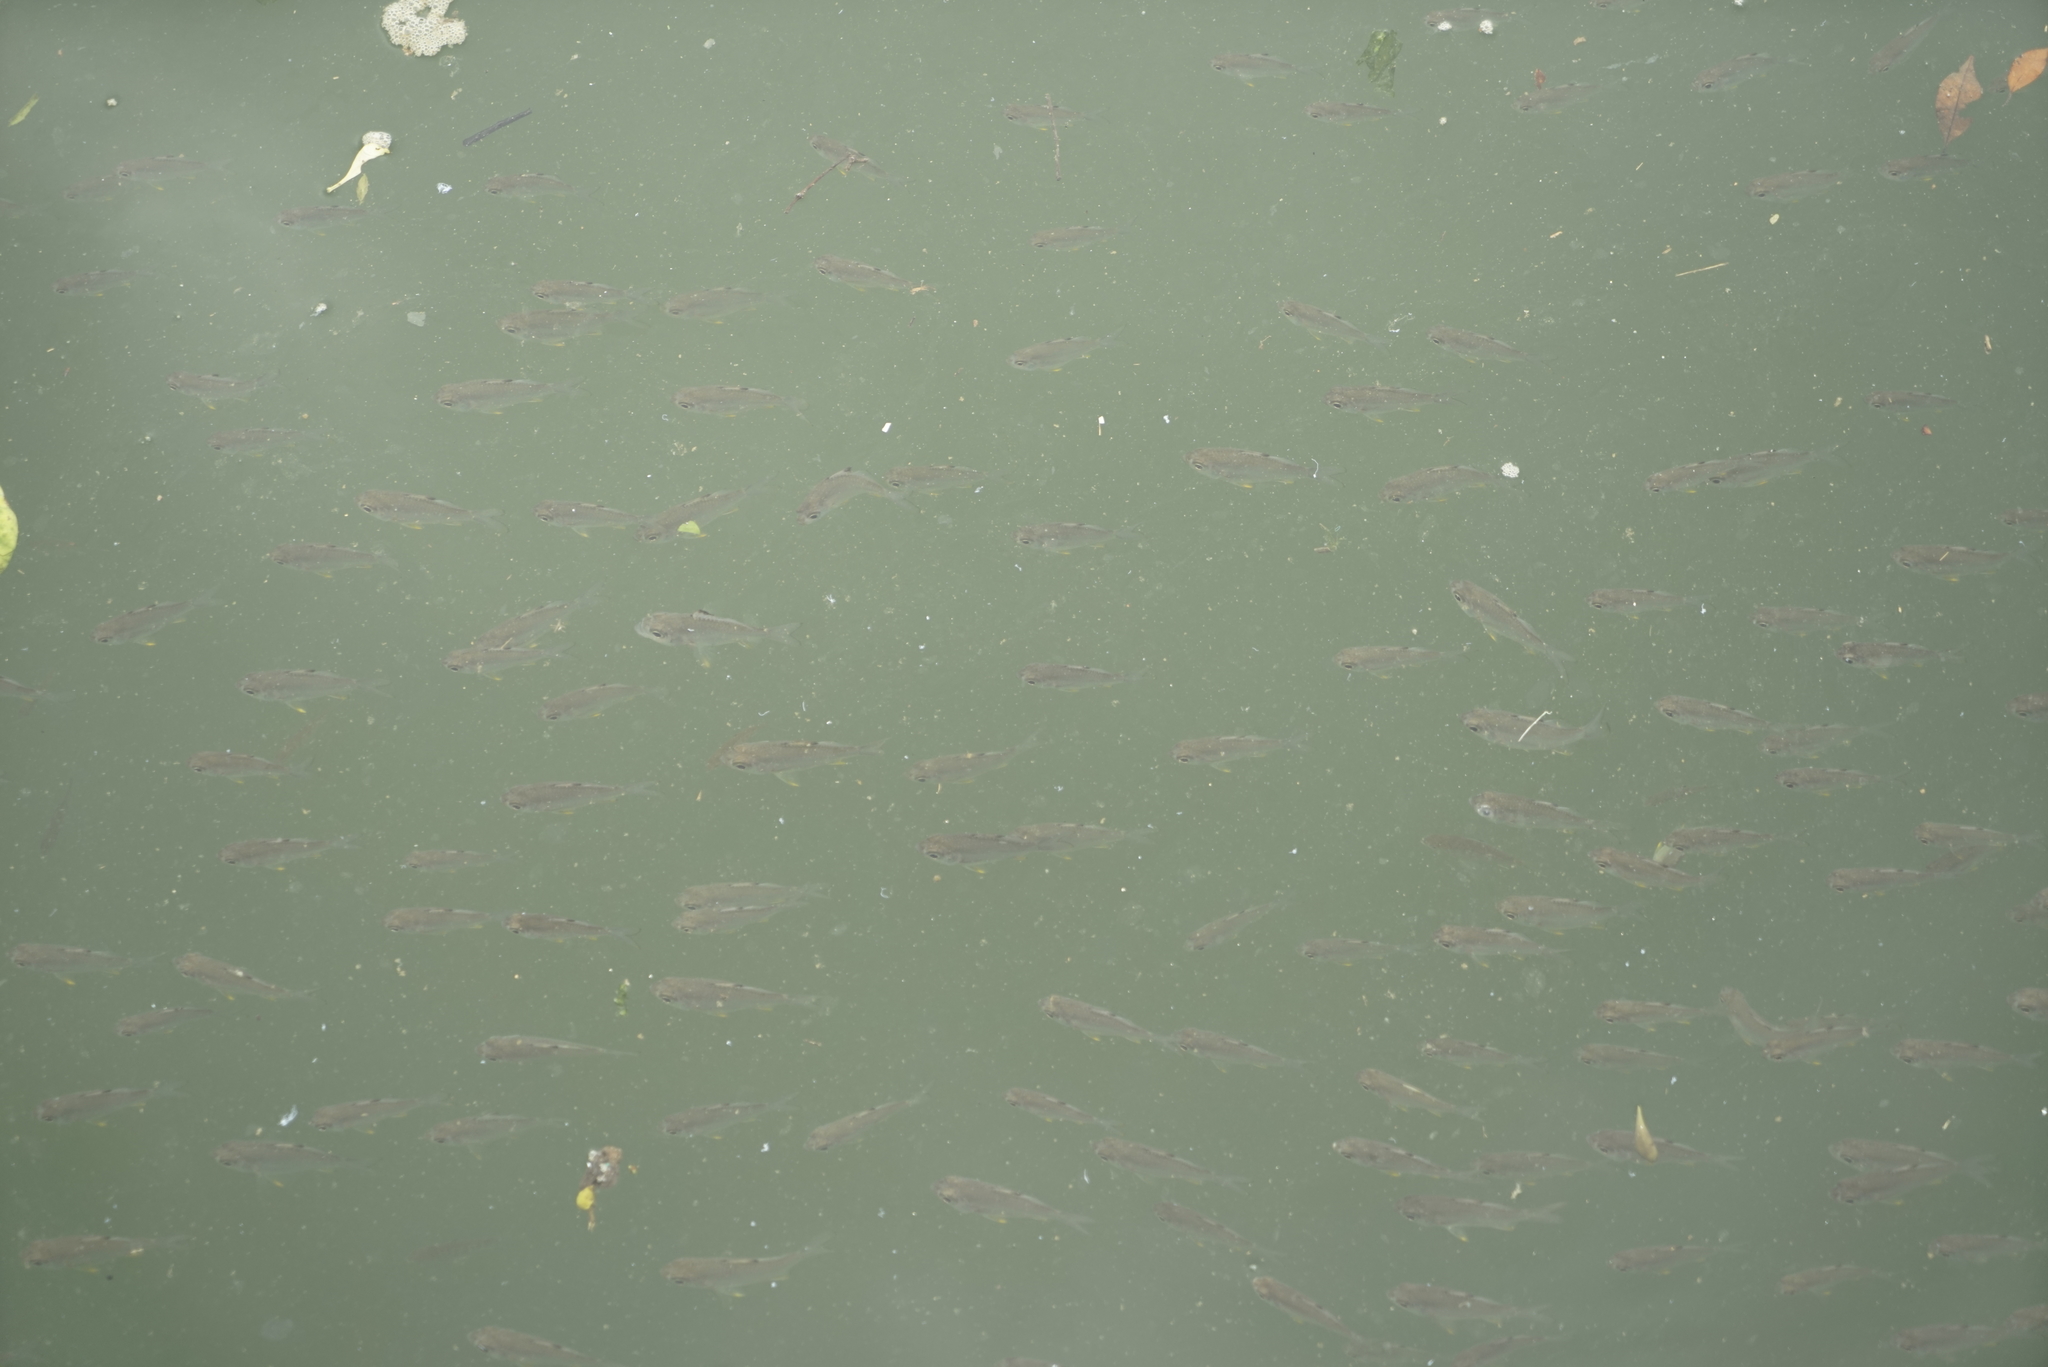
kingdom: Animalia
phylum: Chordata
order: Perciformes
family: Ambassidae
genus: Ambassis
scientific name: Ambassis kopsii
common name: Freckled hawkfish
